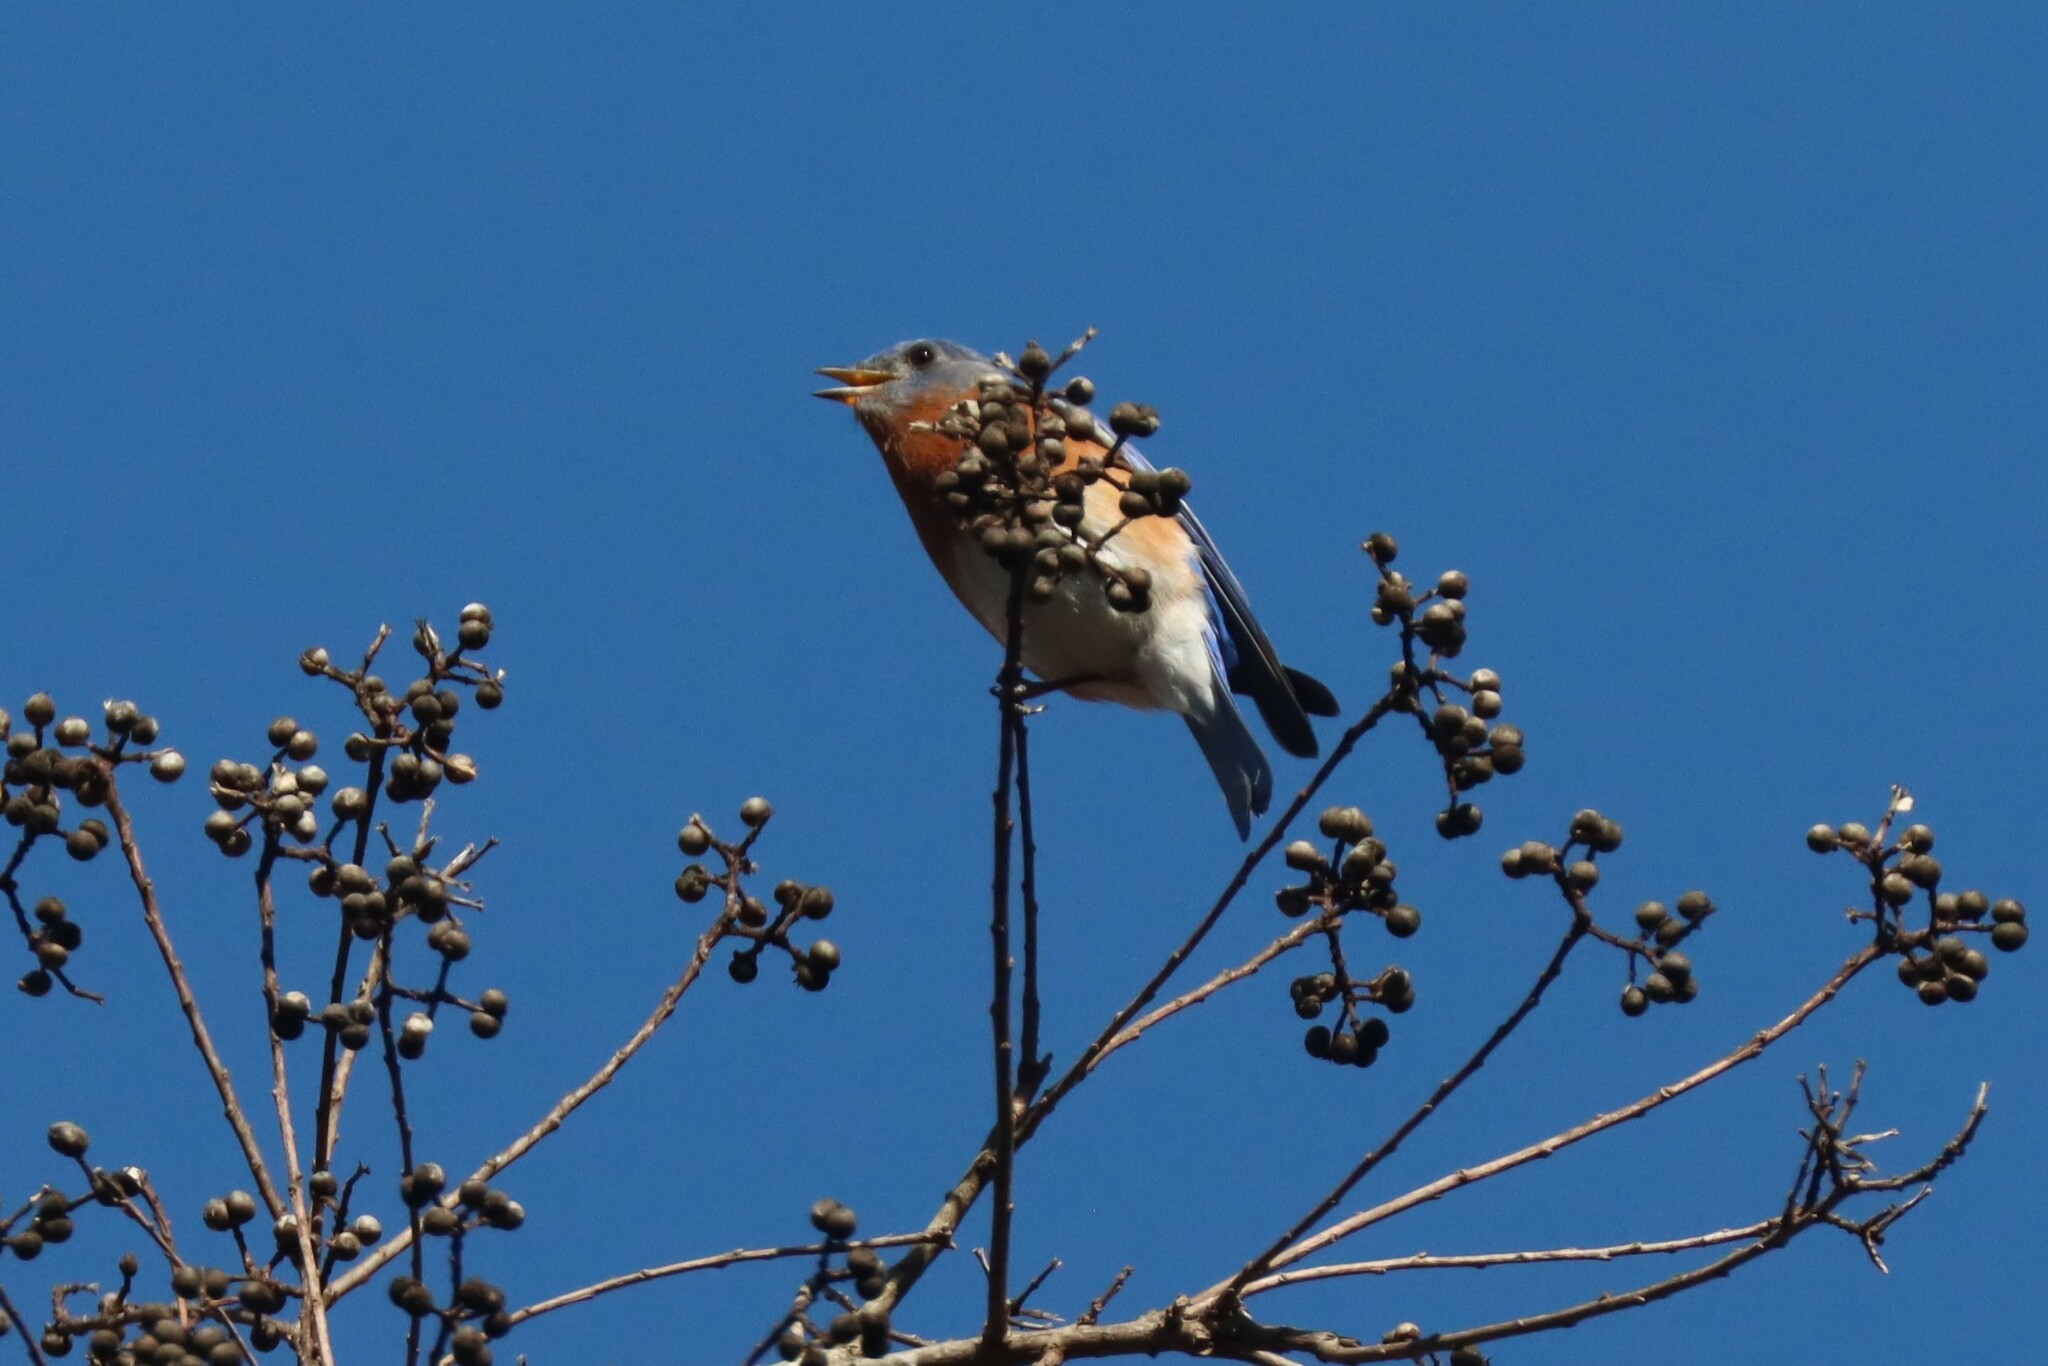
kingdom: Animalia
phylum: Chordata
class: Aves
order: Passeriformes
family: Turdidae
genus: Sialia
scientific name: Sialia sialis
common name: Eastern bluebird
